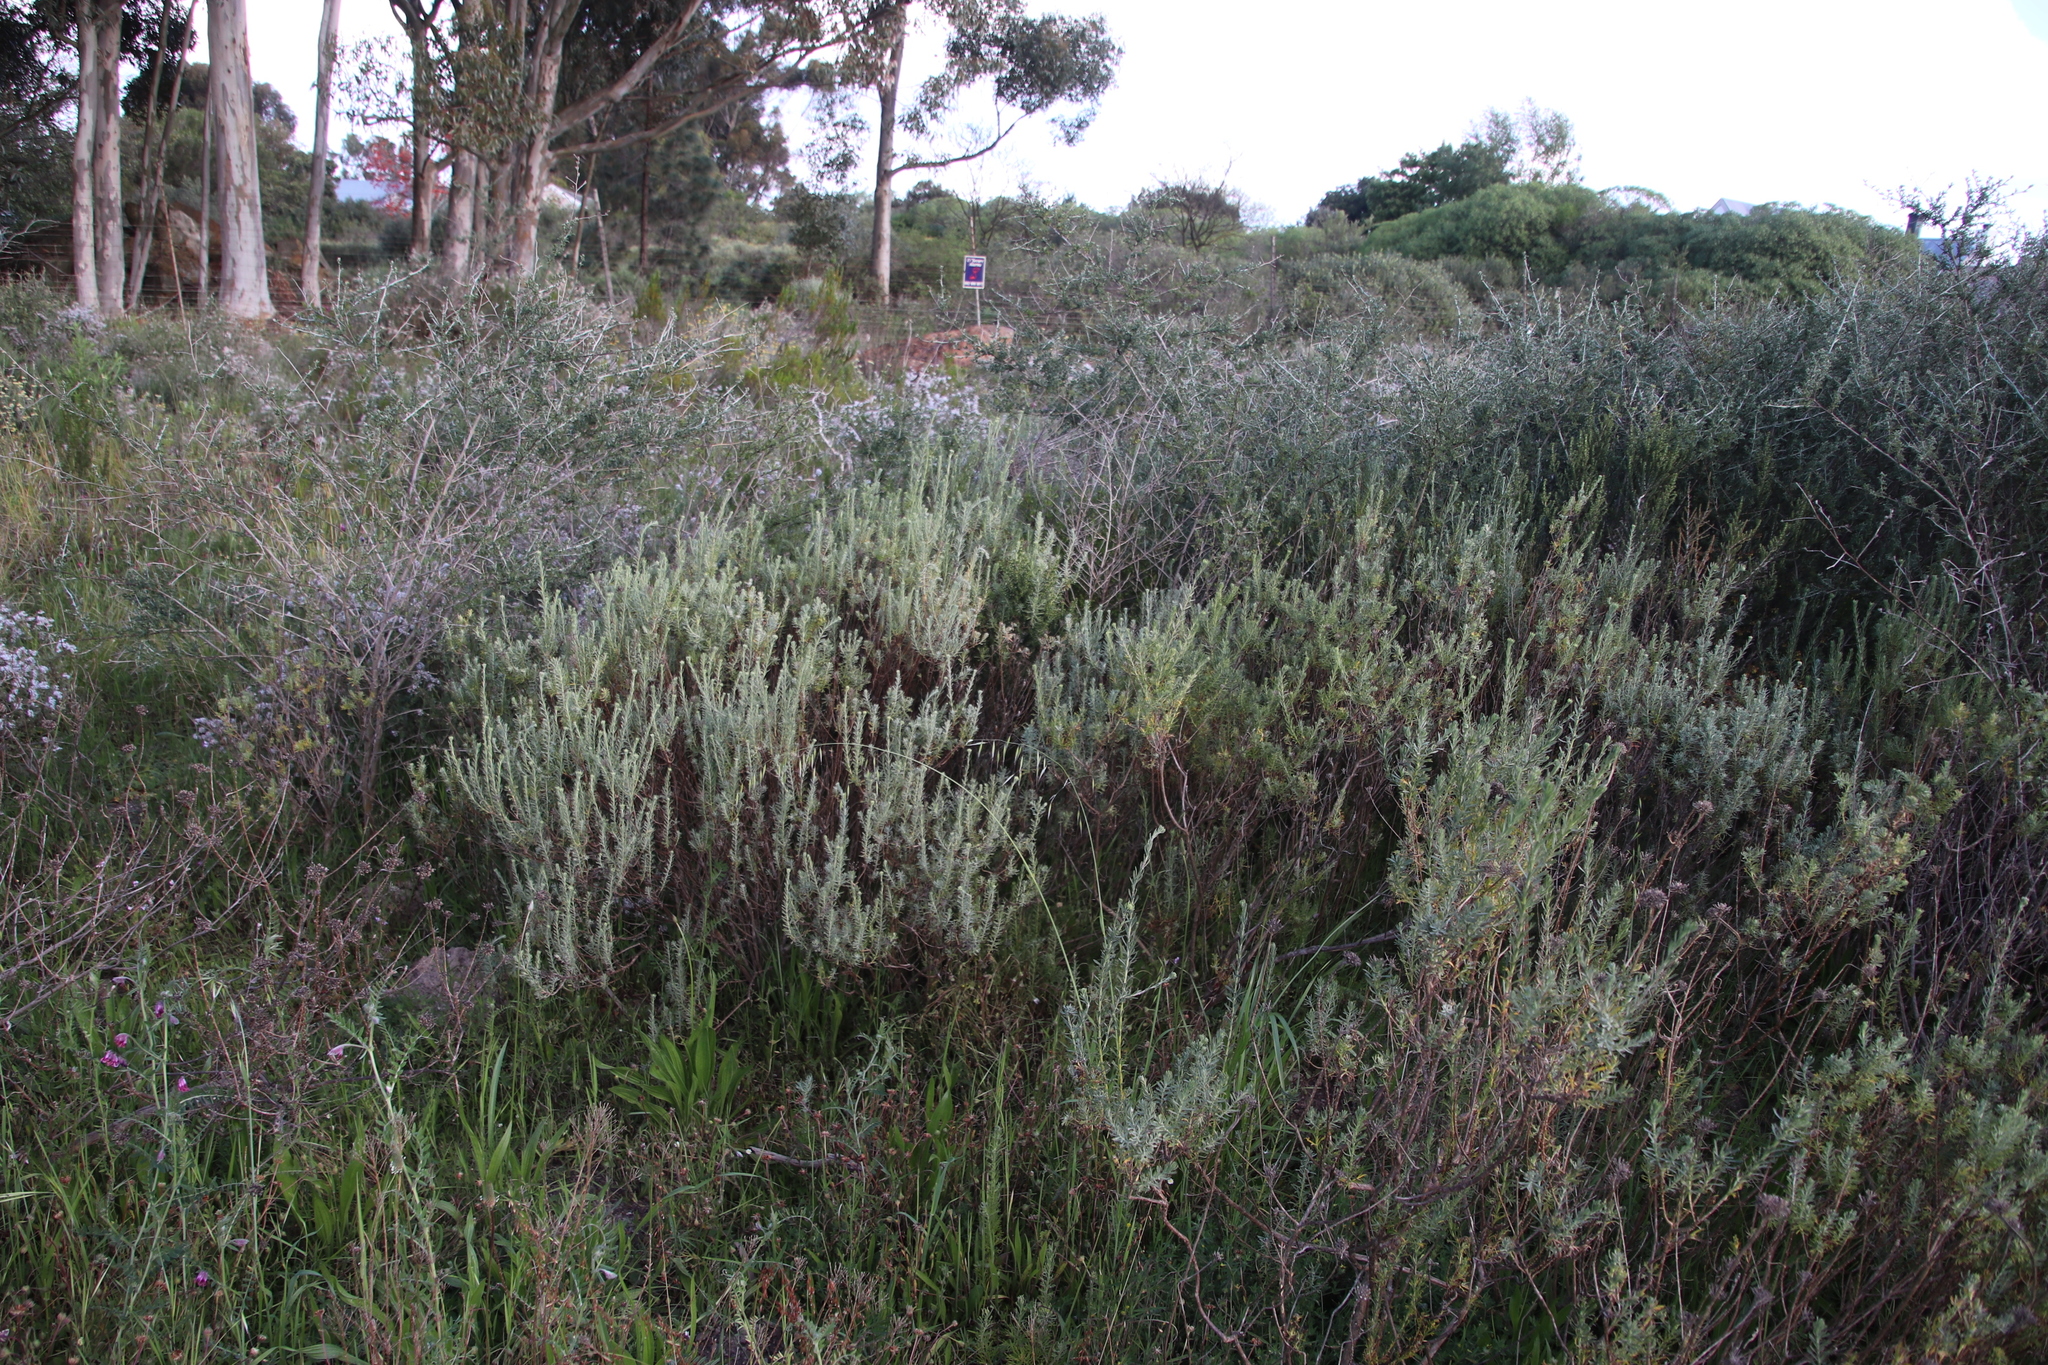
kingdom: Plantae
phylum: Tracheophyta
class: Magnoliopsida
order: Asterales
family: Asteraceae
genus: Athanasia
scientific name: Athanasia trifurcata
